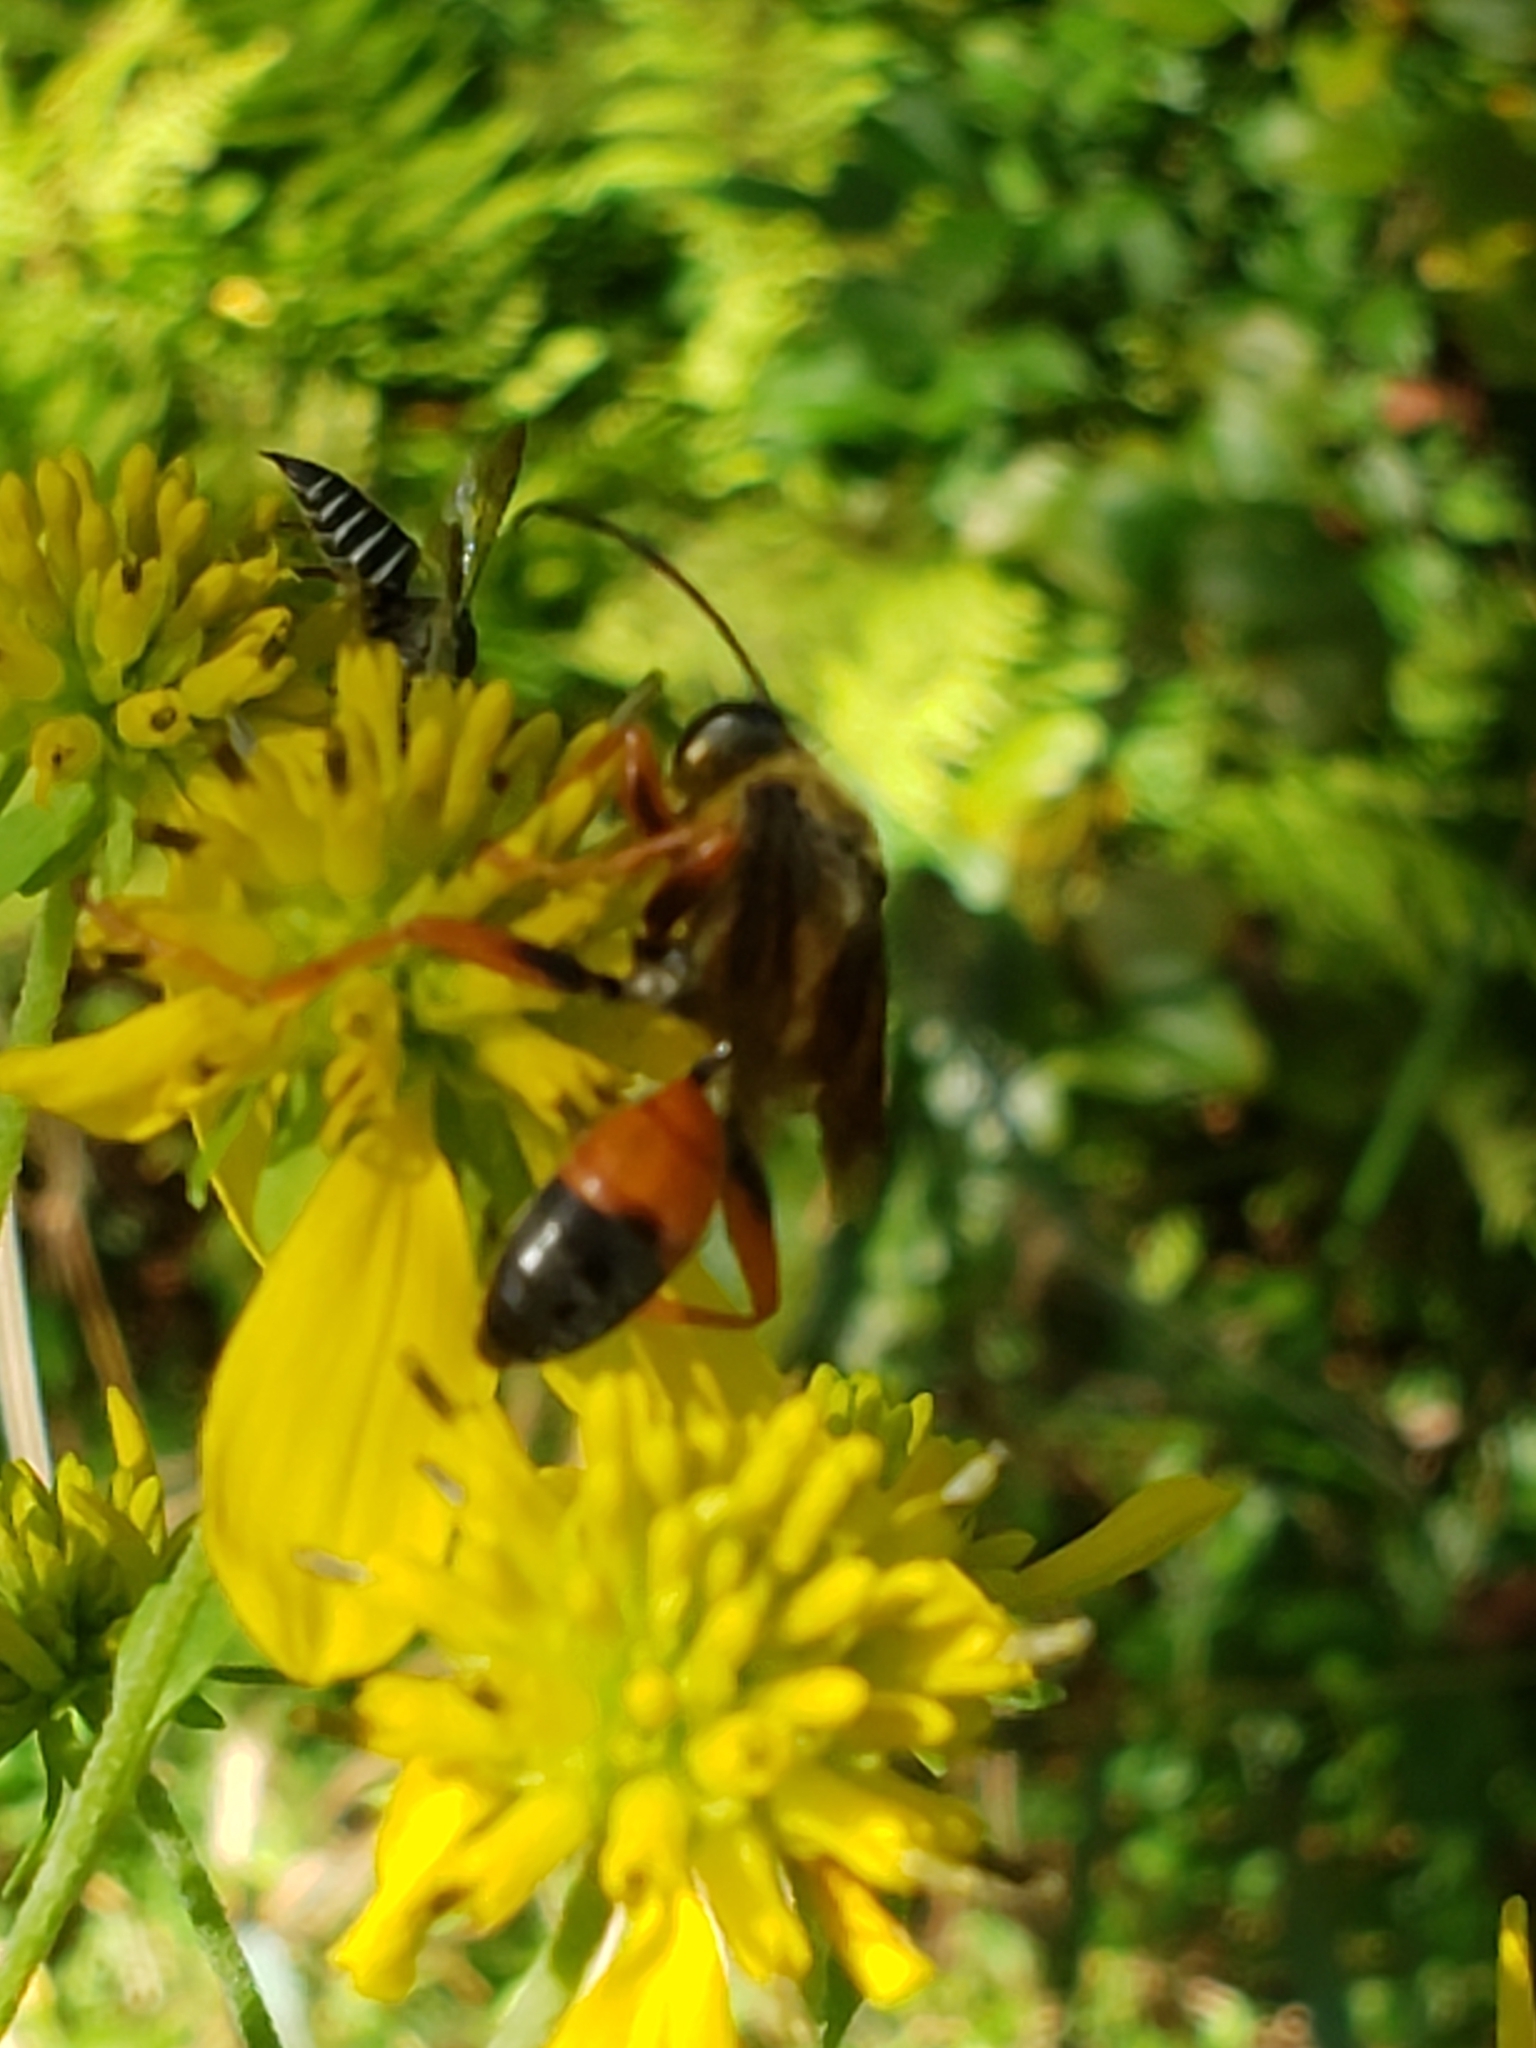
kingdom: Animalia
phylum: Arthropoda
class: Insecta
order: Hymenoptera
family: Sphecidae
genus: Sphex
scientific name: Sphex ichneumoneus
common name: Great golden digger wasp
